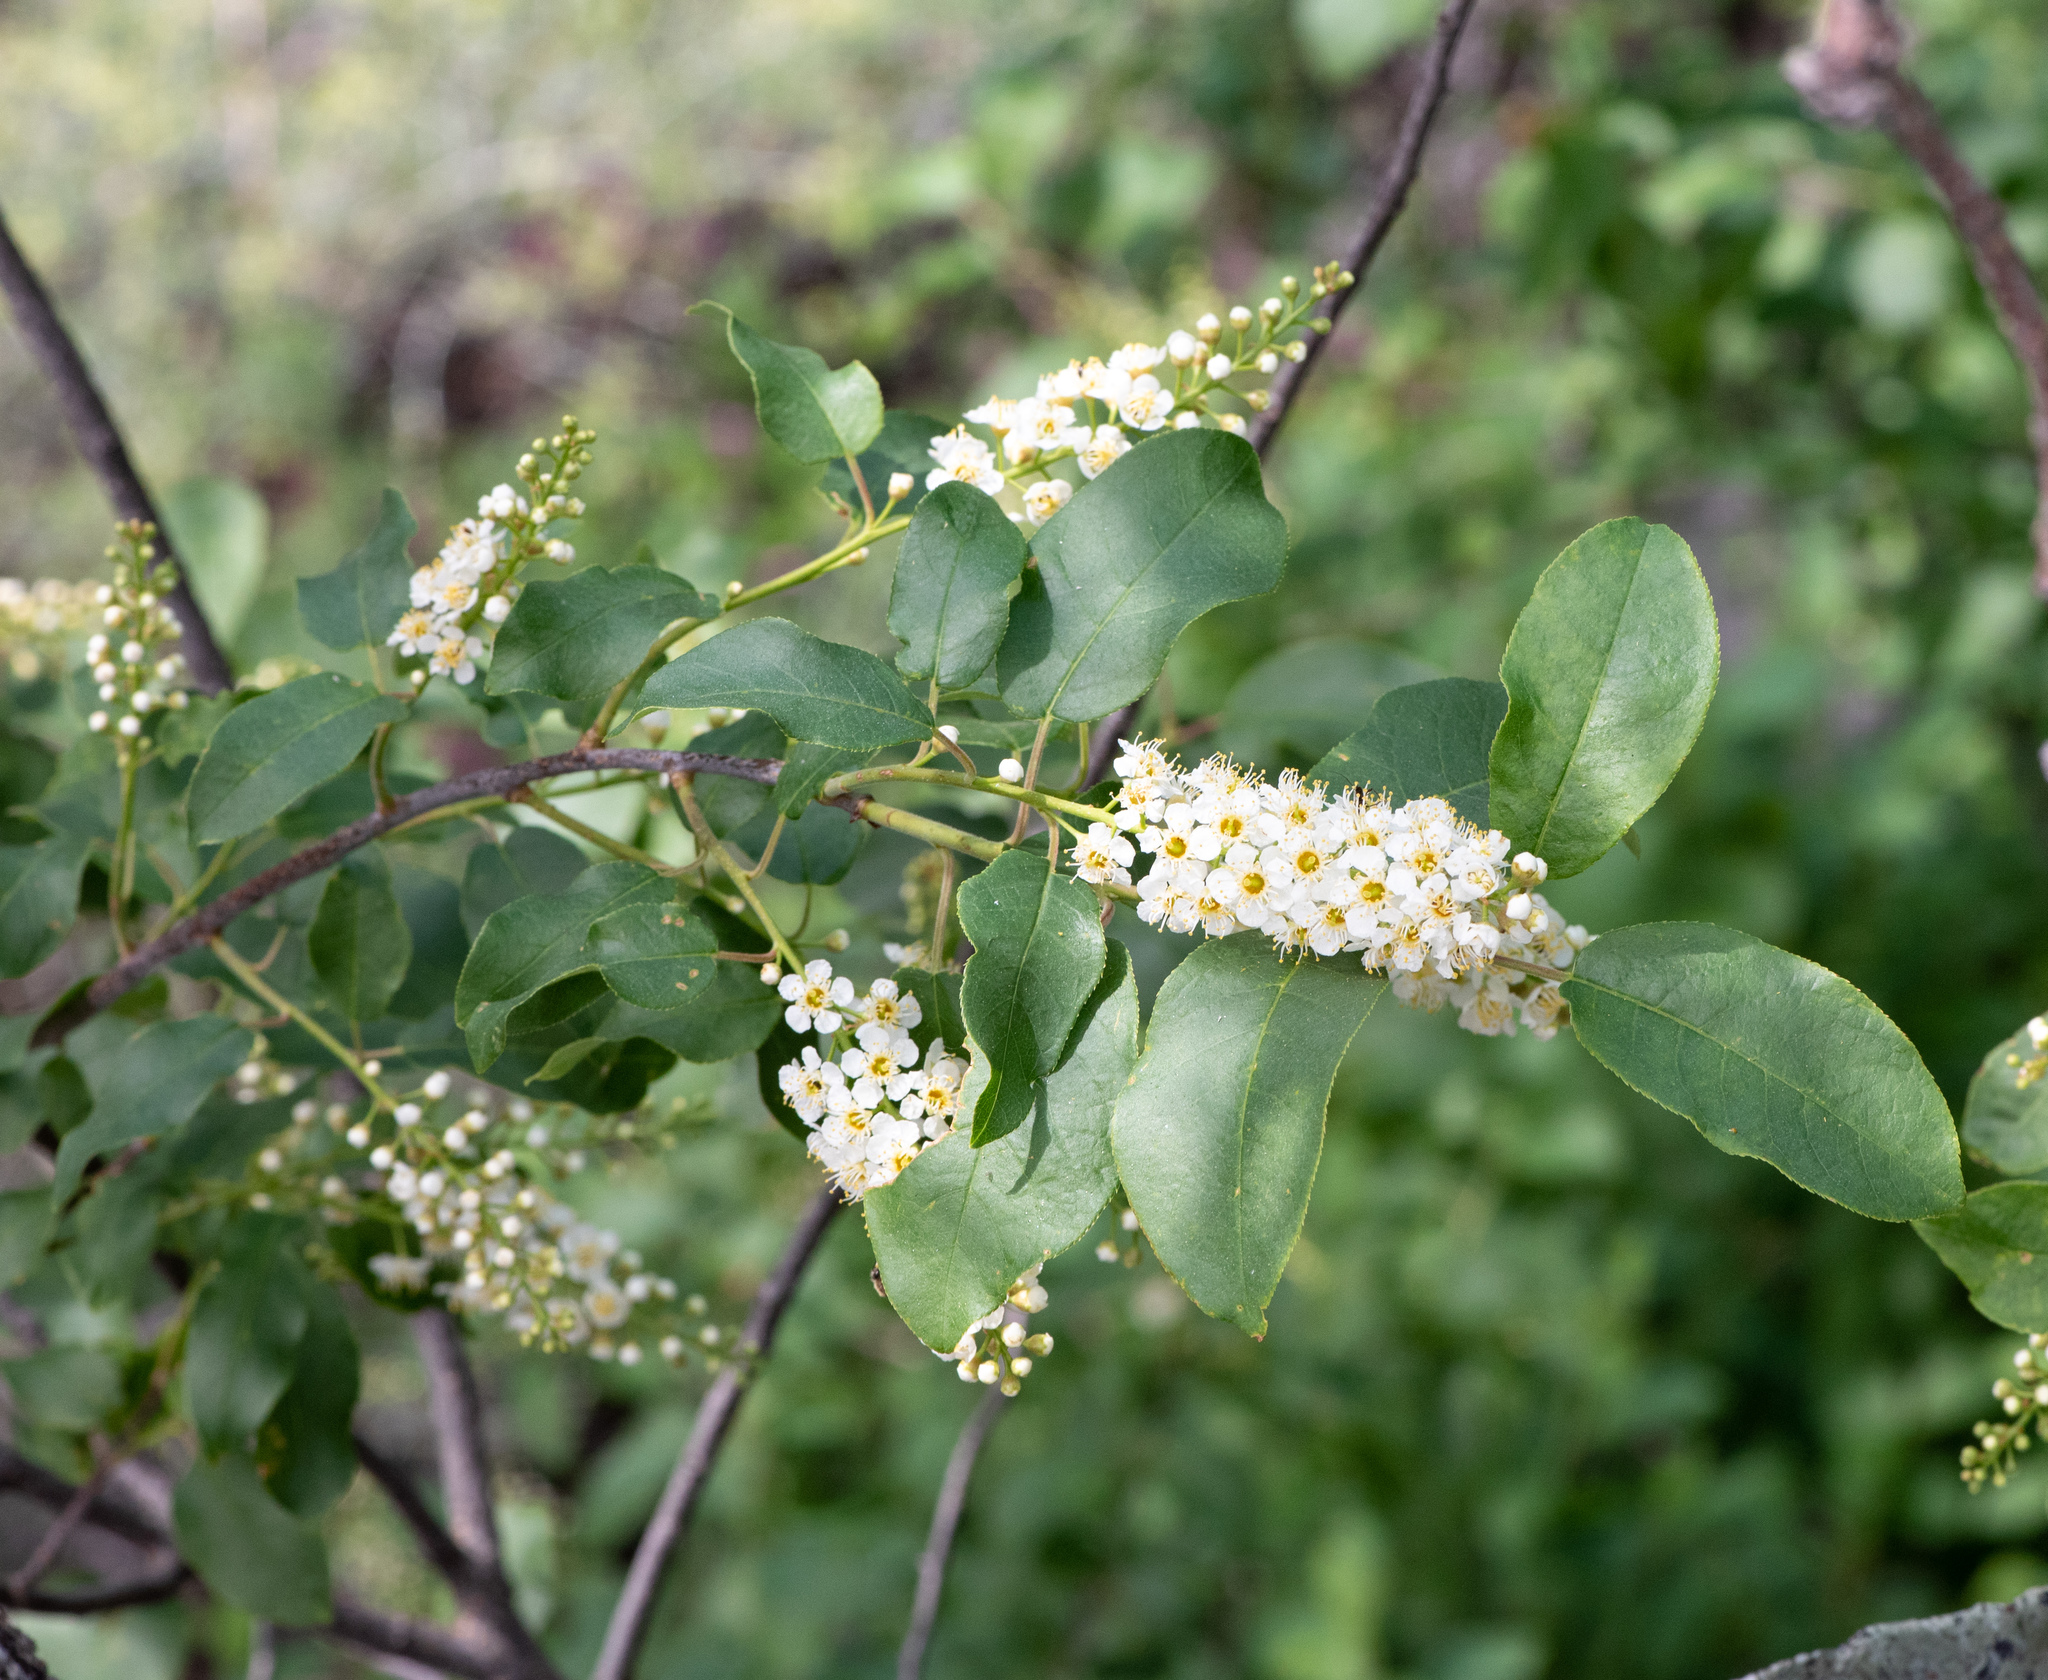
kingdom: Plantae
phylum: Tracheophyta
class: Magnoliopsida
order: Rosales
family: Rosaceae
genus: Prunus
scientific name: Prunus virginiana
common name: Chokecherry
